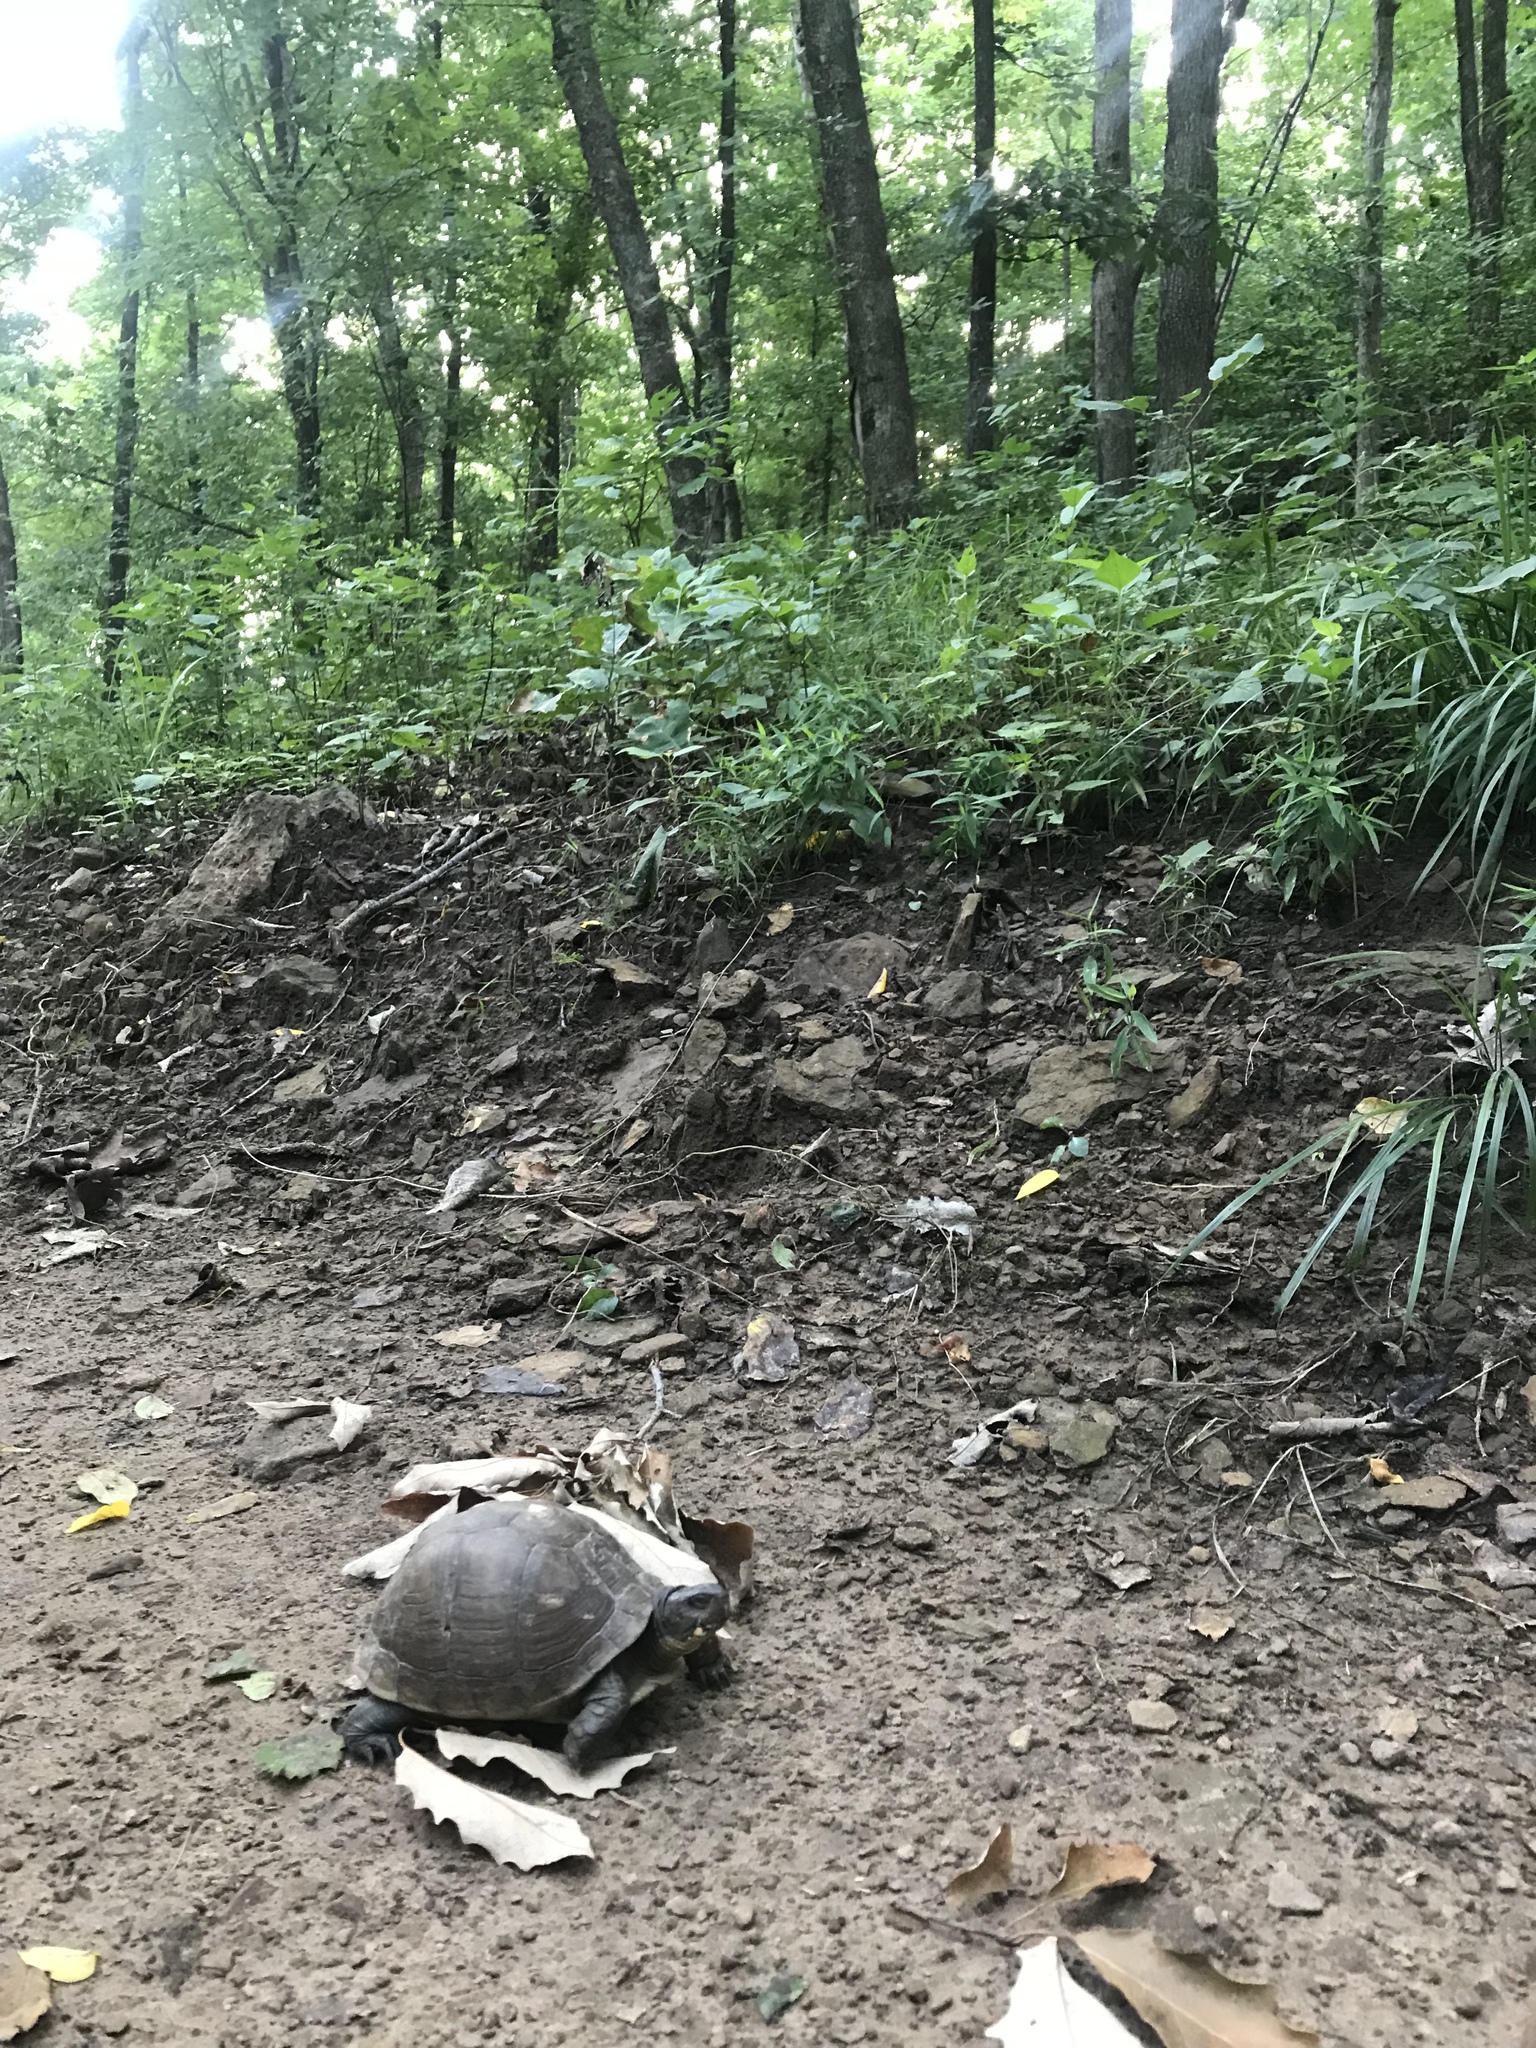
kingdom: Animalia
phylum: Chordata
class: Testudines
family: Emydidae
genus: Terrapene
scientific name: Terrapene carolina
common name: Common box turtle
